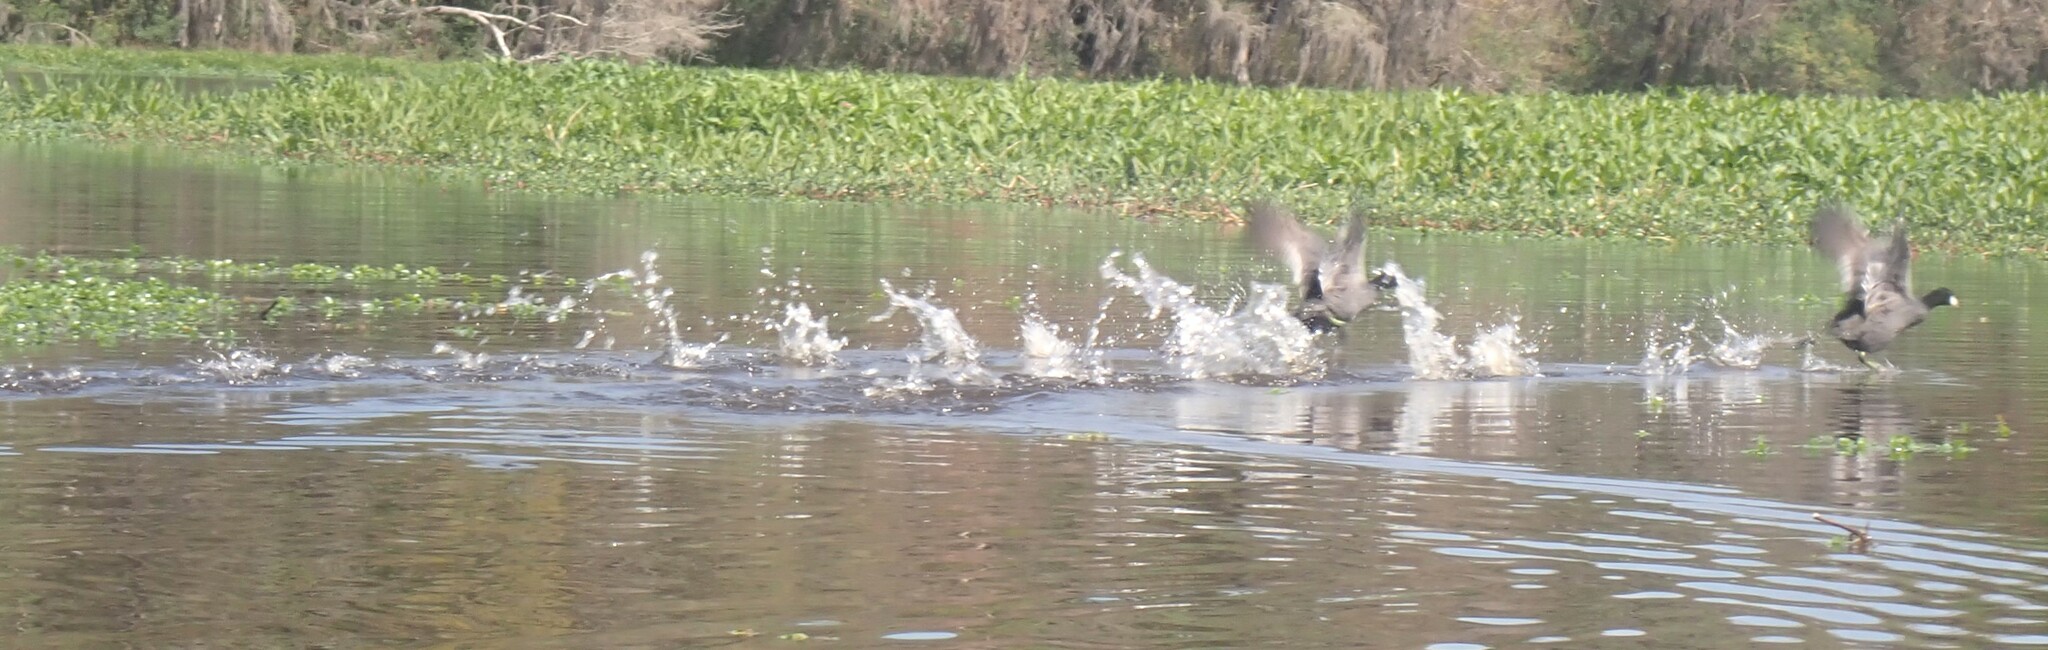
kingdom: Animalia
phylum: Chordata
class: Aves
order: Gruiformes
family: Rallidae
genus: Fulica
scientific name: Fulica americana
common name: American coot
